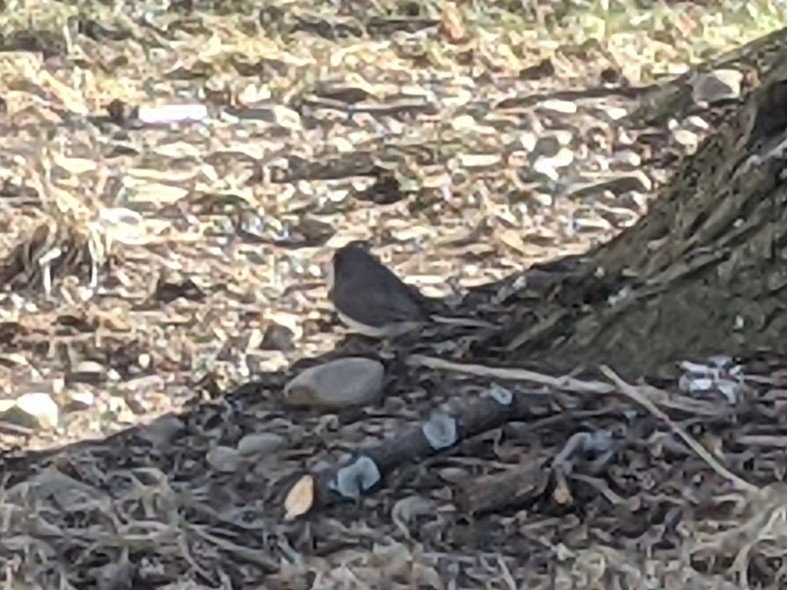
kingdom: Animalia
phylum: Chordata
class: Aves
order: Passeriformes
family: Passerellidae
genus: Junco
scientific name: Junco hyemalis
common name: Dark-eyed junco
